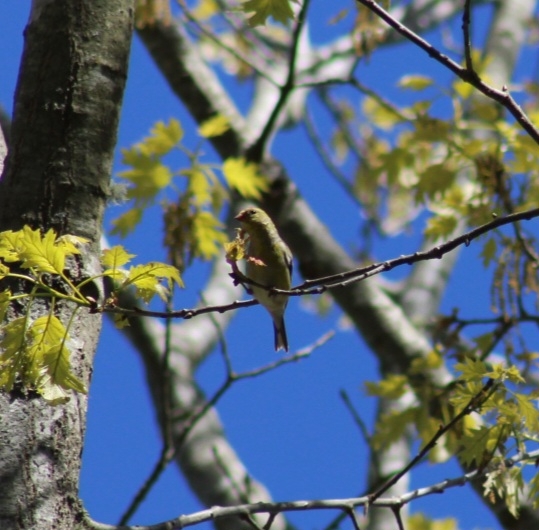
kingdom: Animalia
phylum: Chordata
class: Aves
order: Passeriformes
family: Fringillidae
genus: Spinus
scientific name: Spinus tristis
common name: American goldfinch
